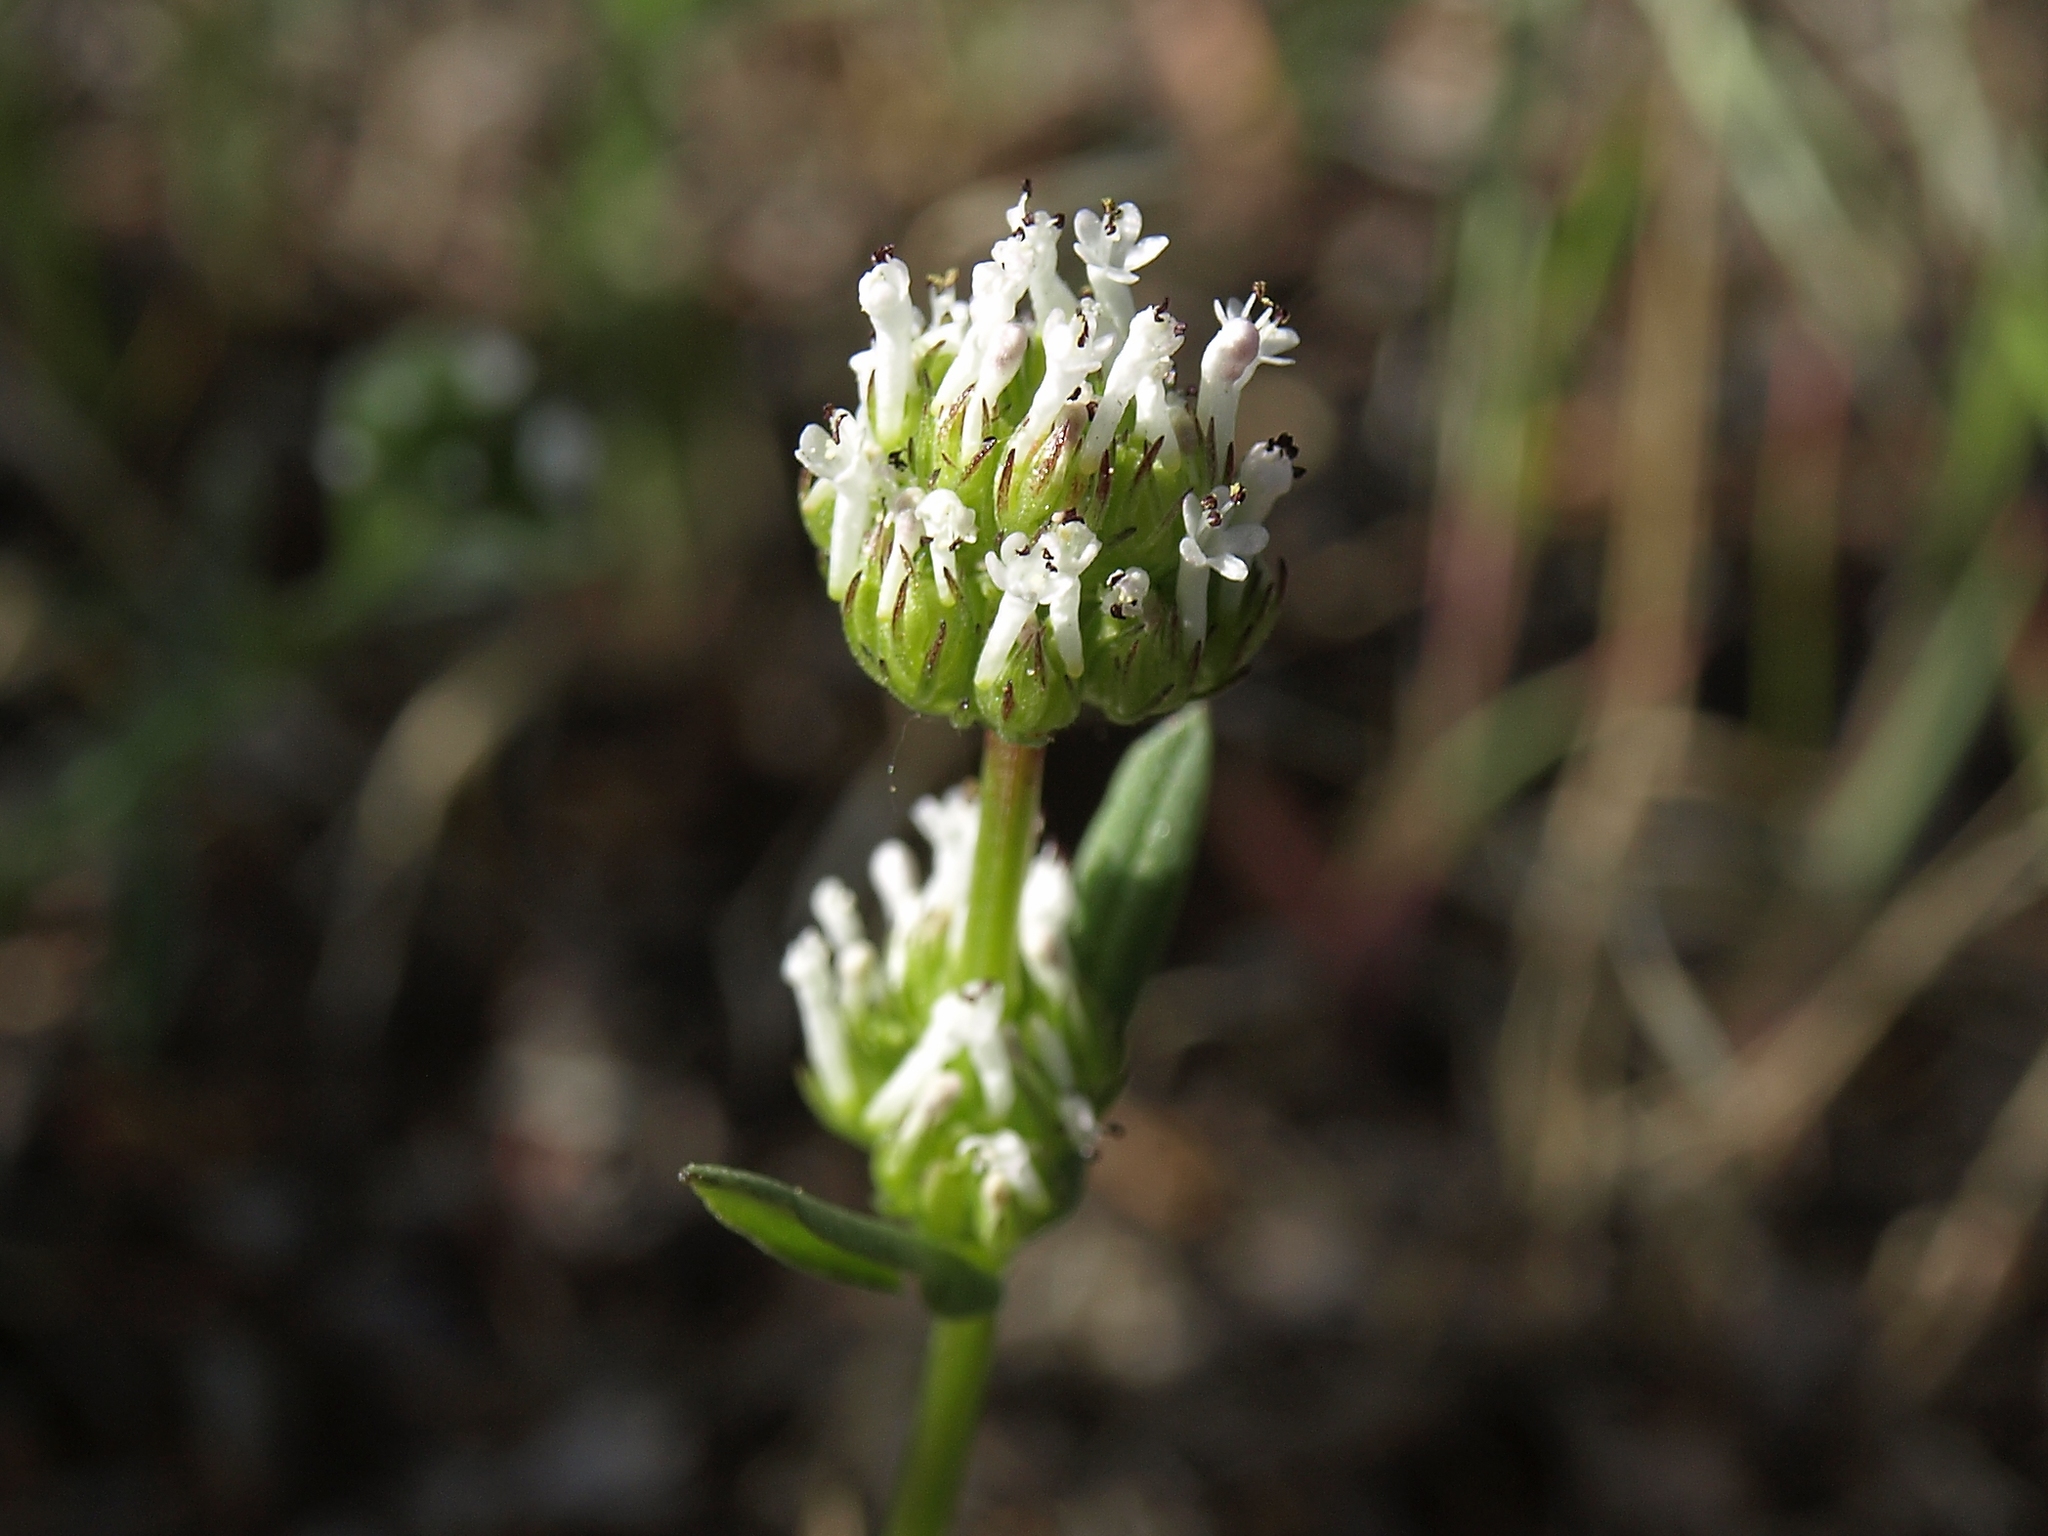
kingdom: Plantae
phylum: Tracheophyta
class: Magnoliopsida
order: Dipsacales
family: Caprifoliaceae
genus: Plectritis
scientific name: Plectritis macroptera
